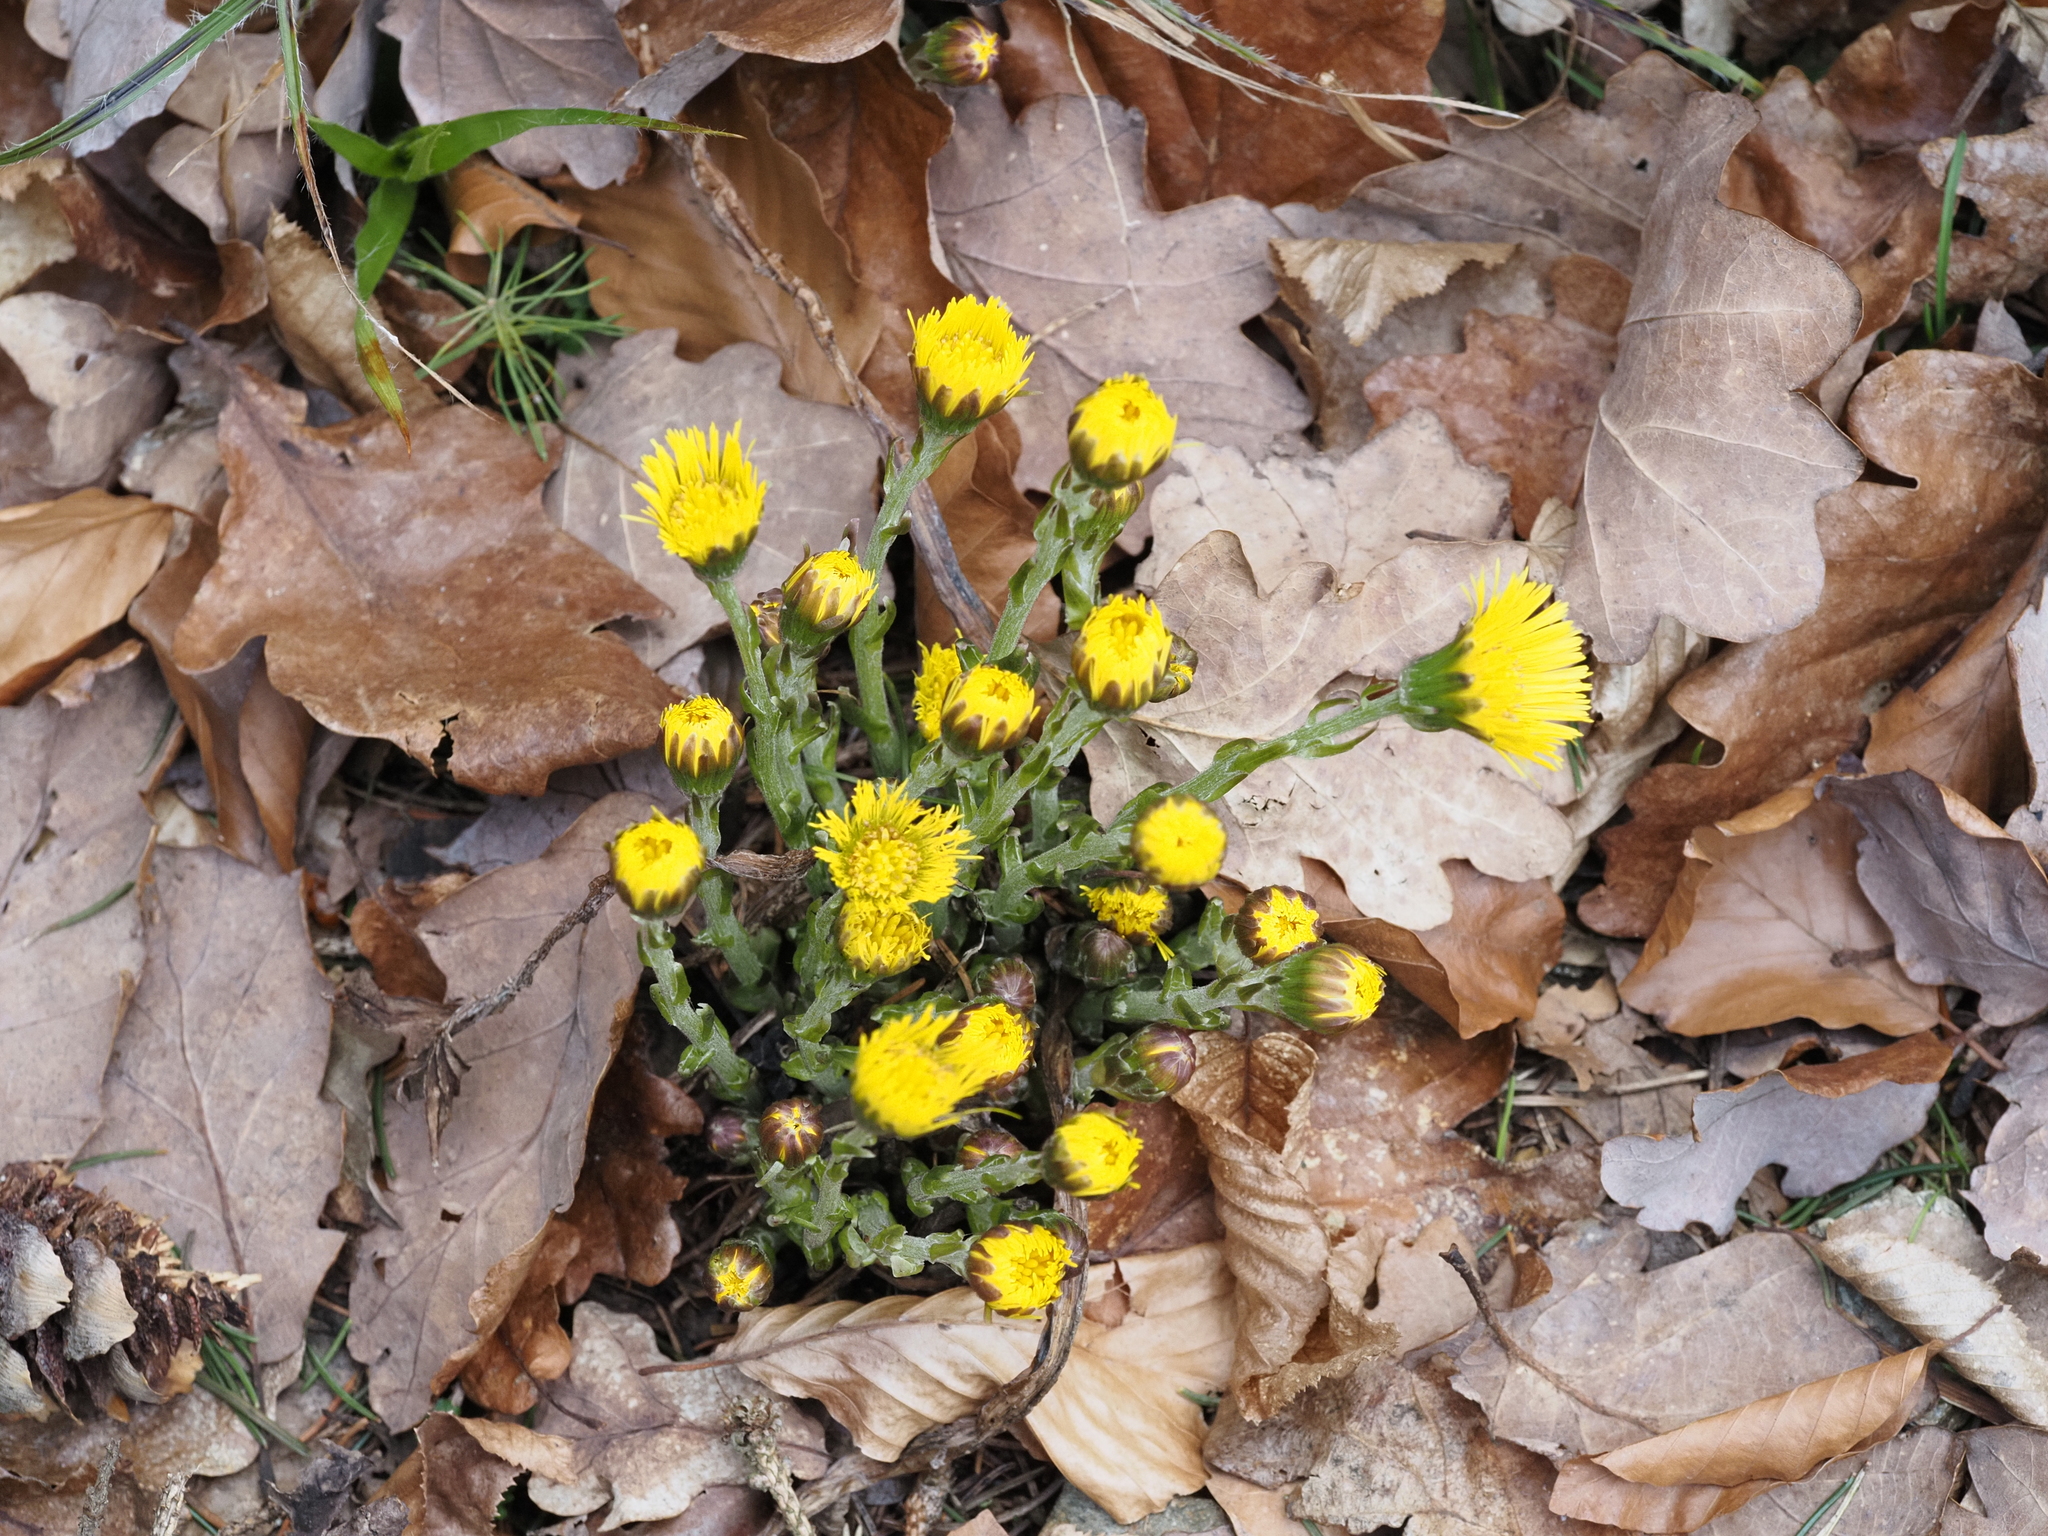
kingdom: Plantae
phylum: Tracheophyta
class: Magnoliopsida
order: Asterales
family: Asteraceae
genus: Tussilago
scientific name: Tussilago farfara
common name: Coltsfoot
